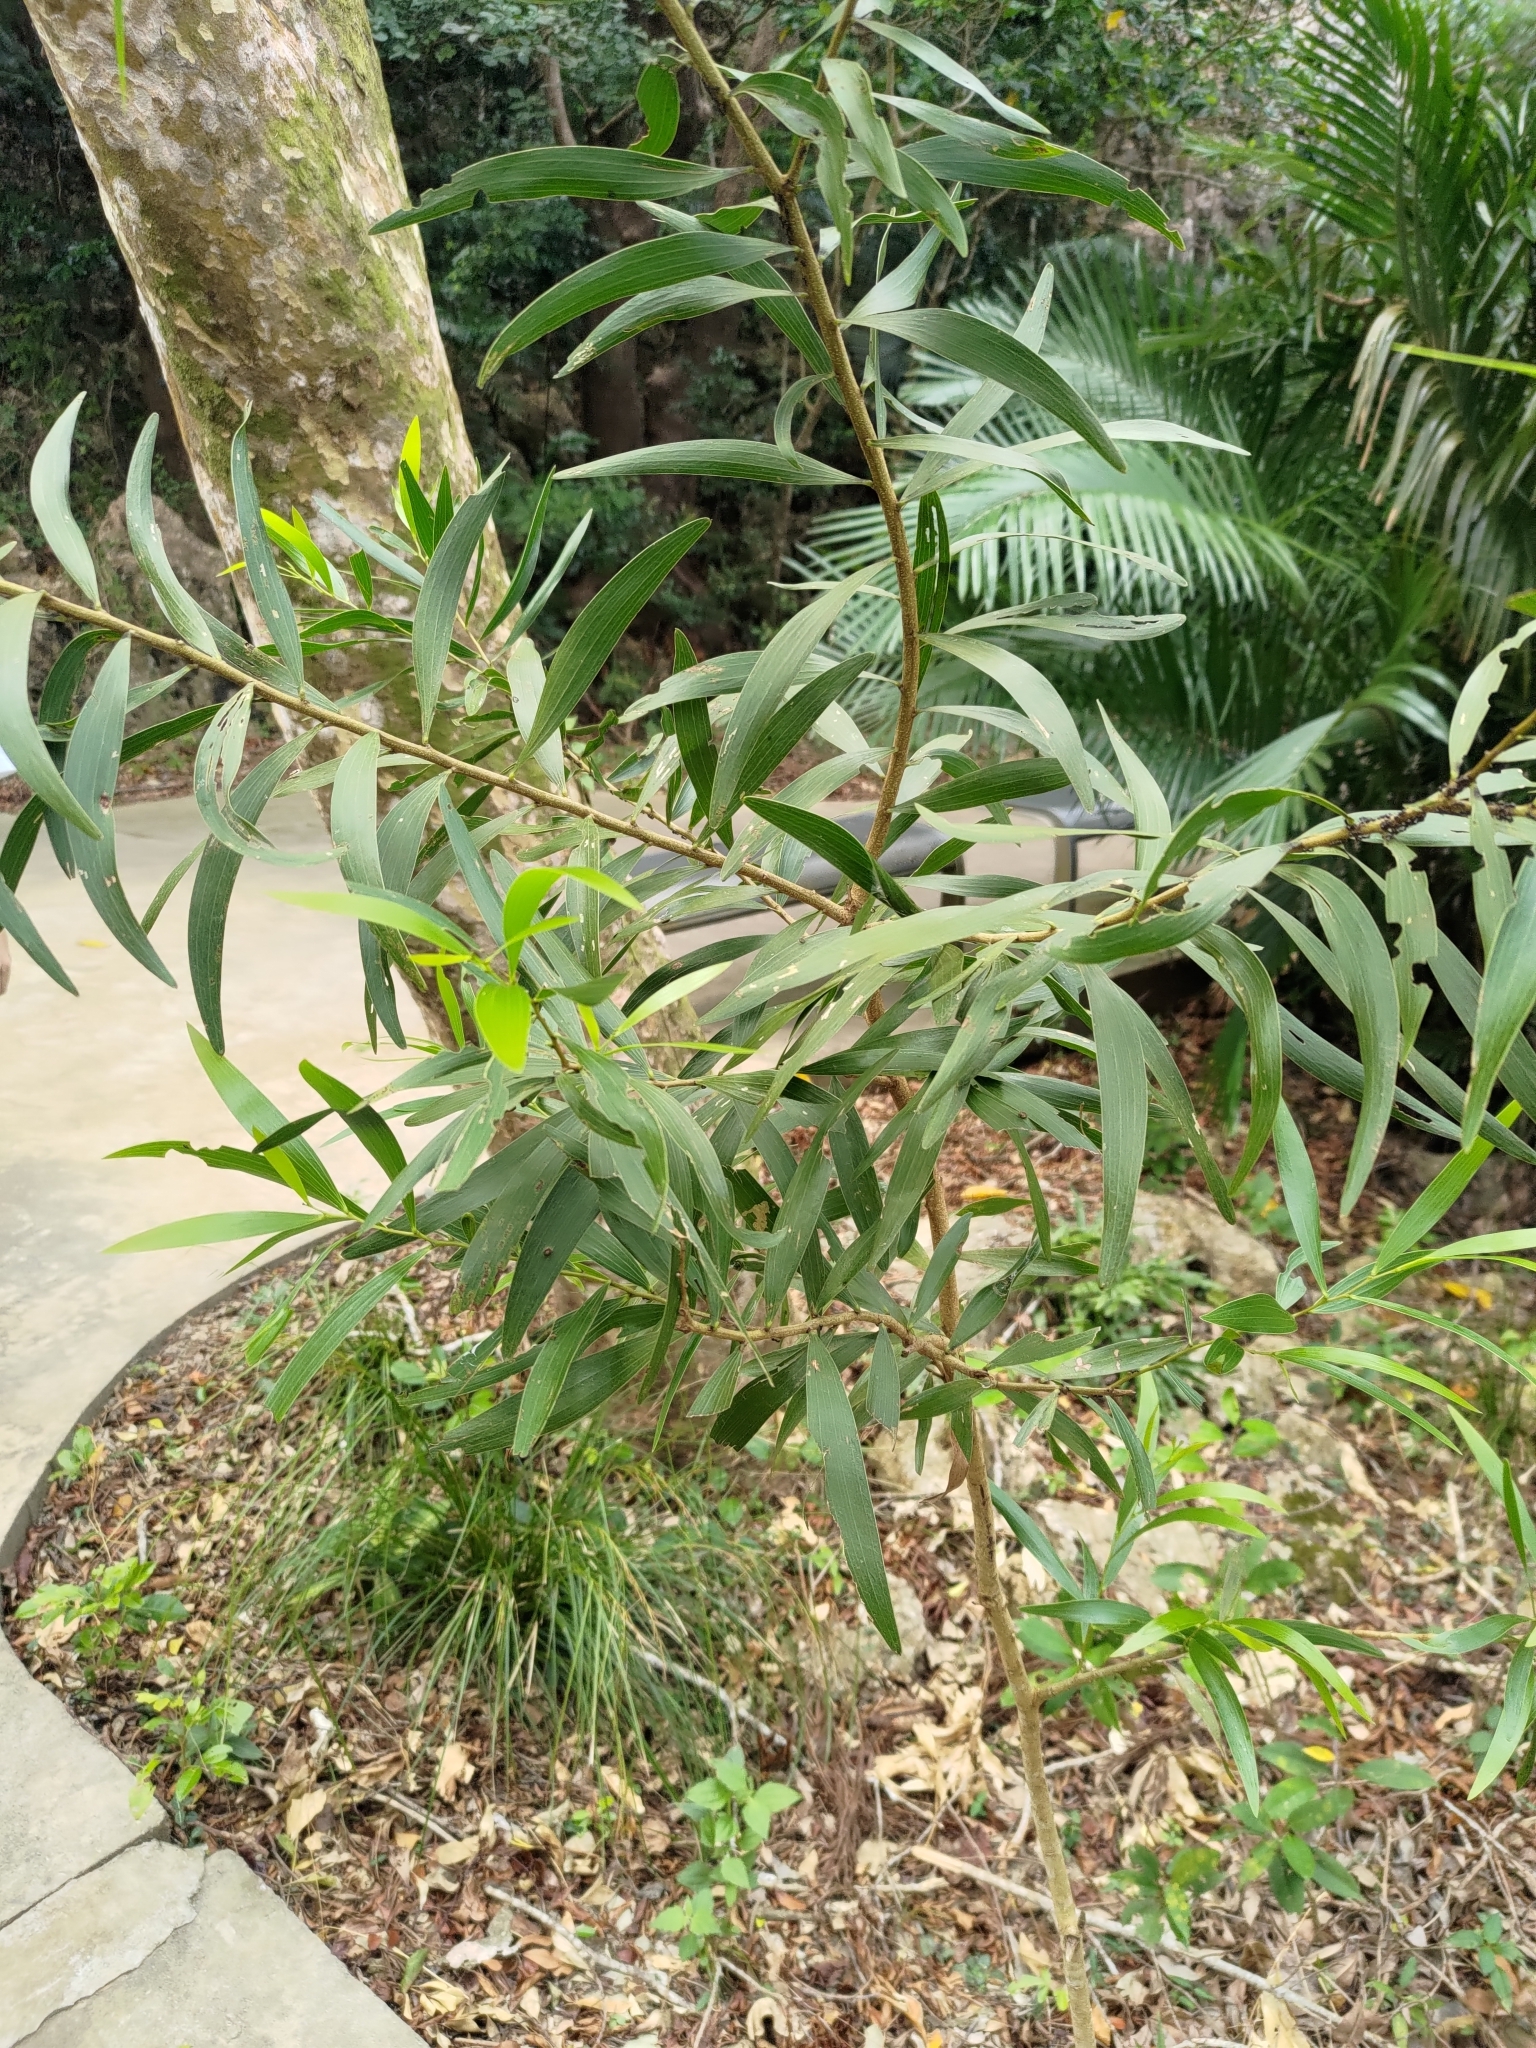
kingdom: Plantae
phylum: Tracheophyta
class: Magnoliopsida
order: Fabales
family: Fabaceae
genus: Acacia
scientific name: Acacia confusa
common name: Formosan koa
